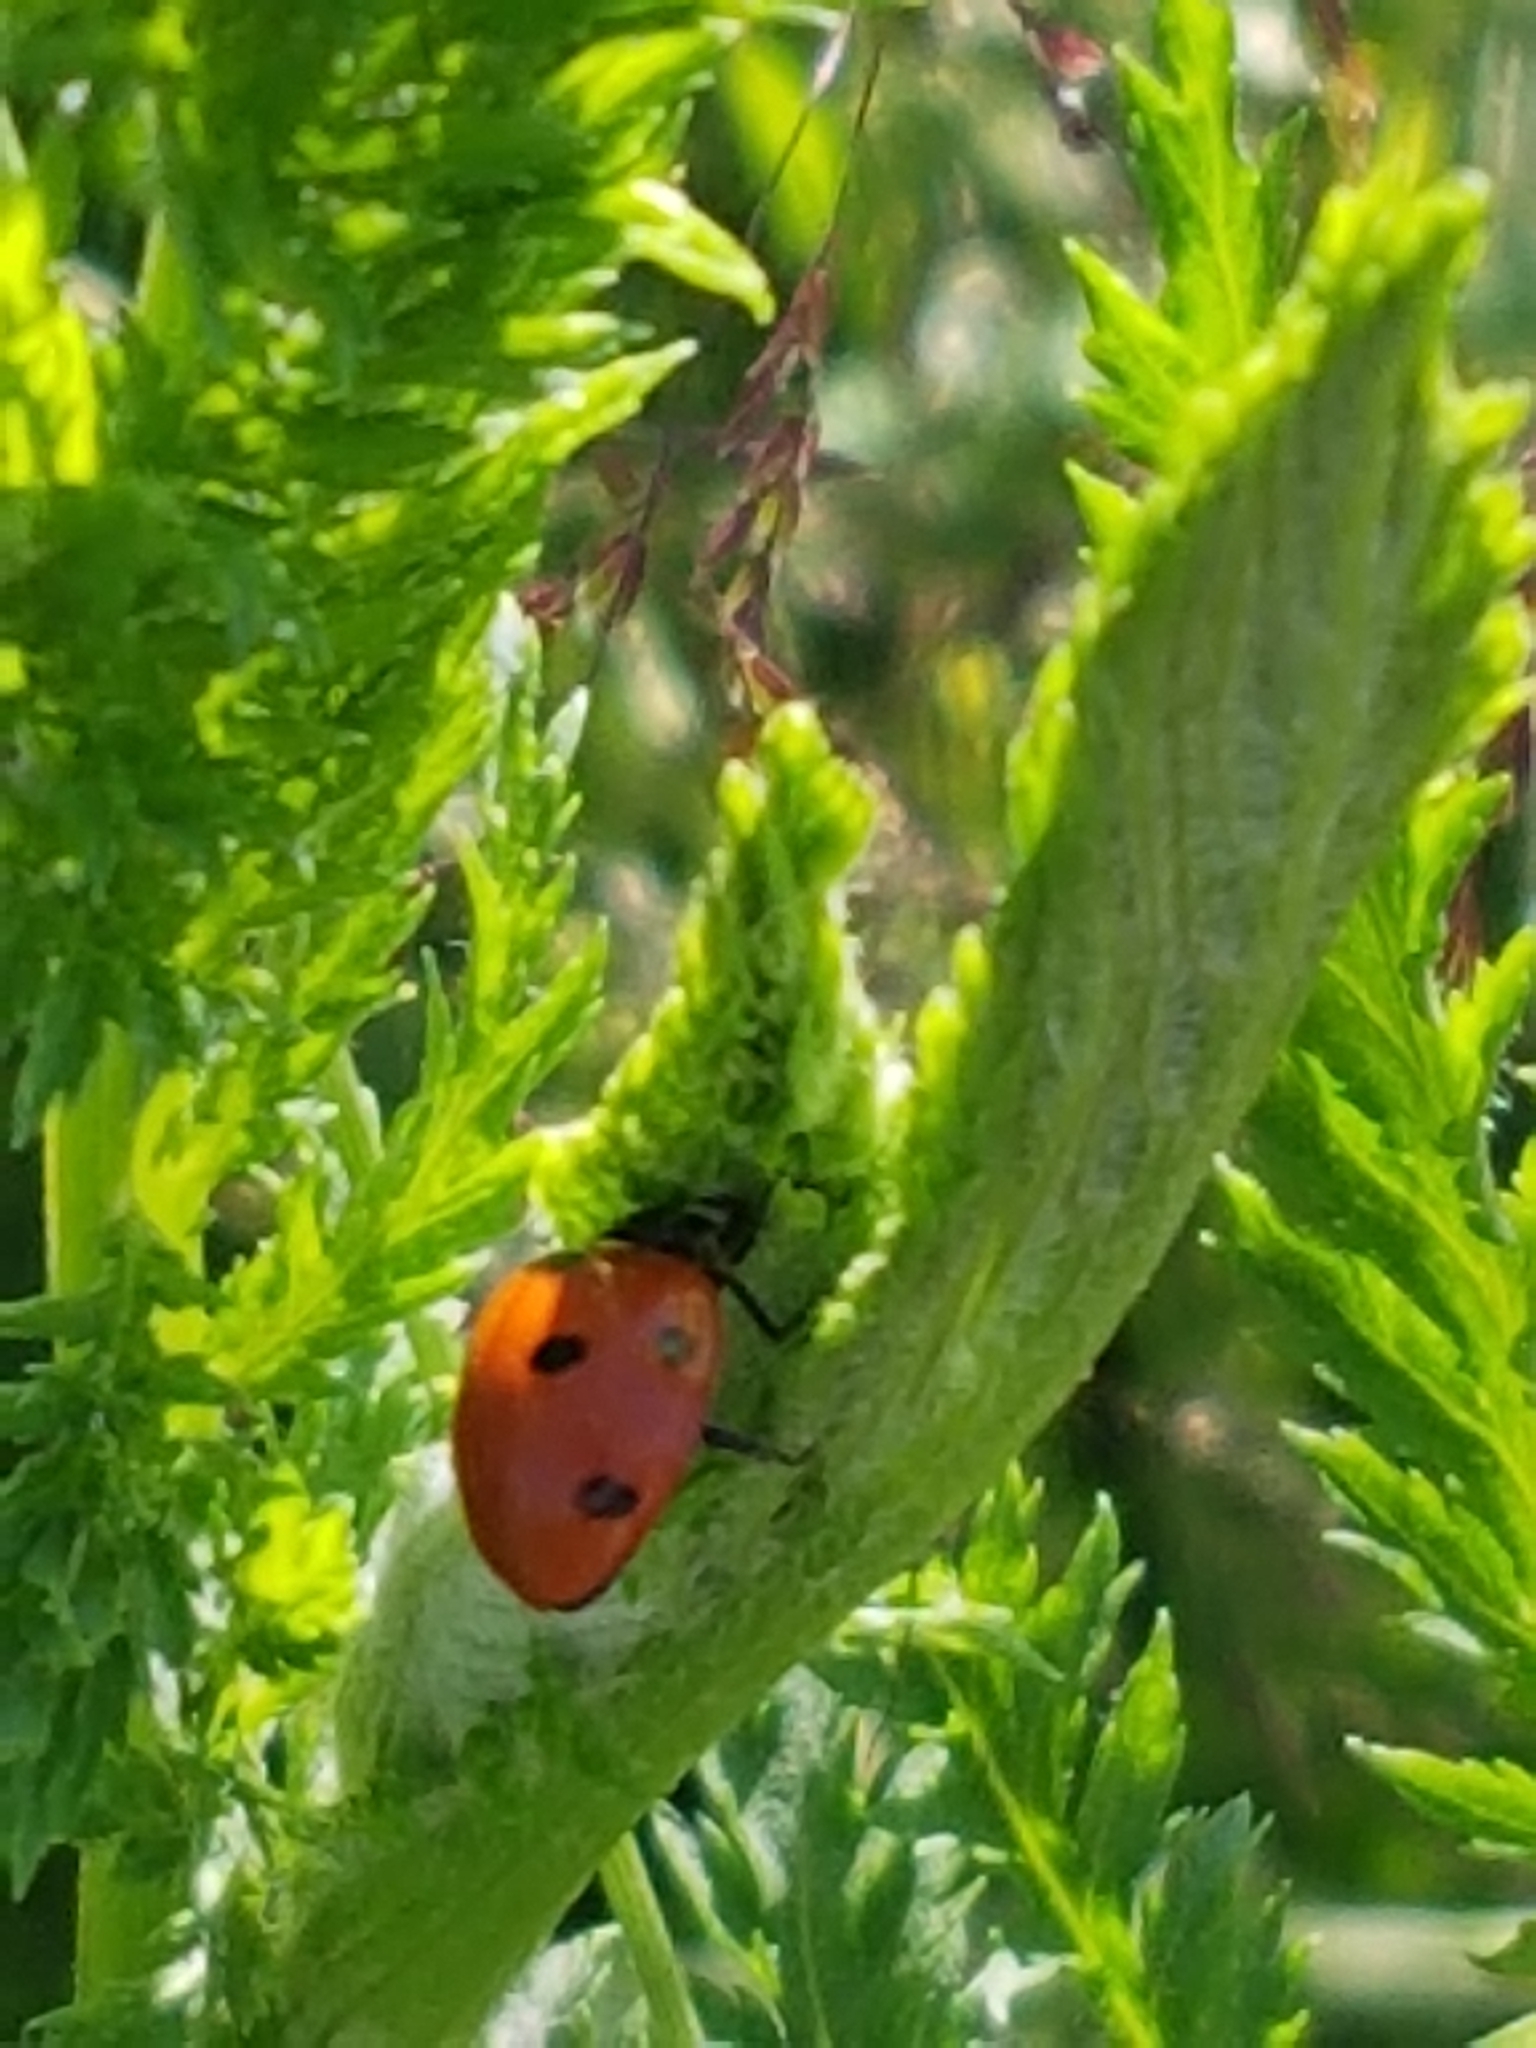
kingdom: Animalia
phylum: Arthropoda
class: Insecta
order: Coleoptera
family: Coccinellidae
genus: Coccinella
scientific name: Coccinella septempunctata
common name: Sevenspotted lady beetle
